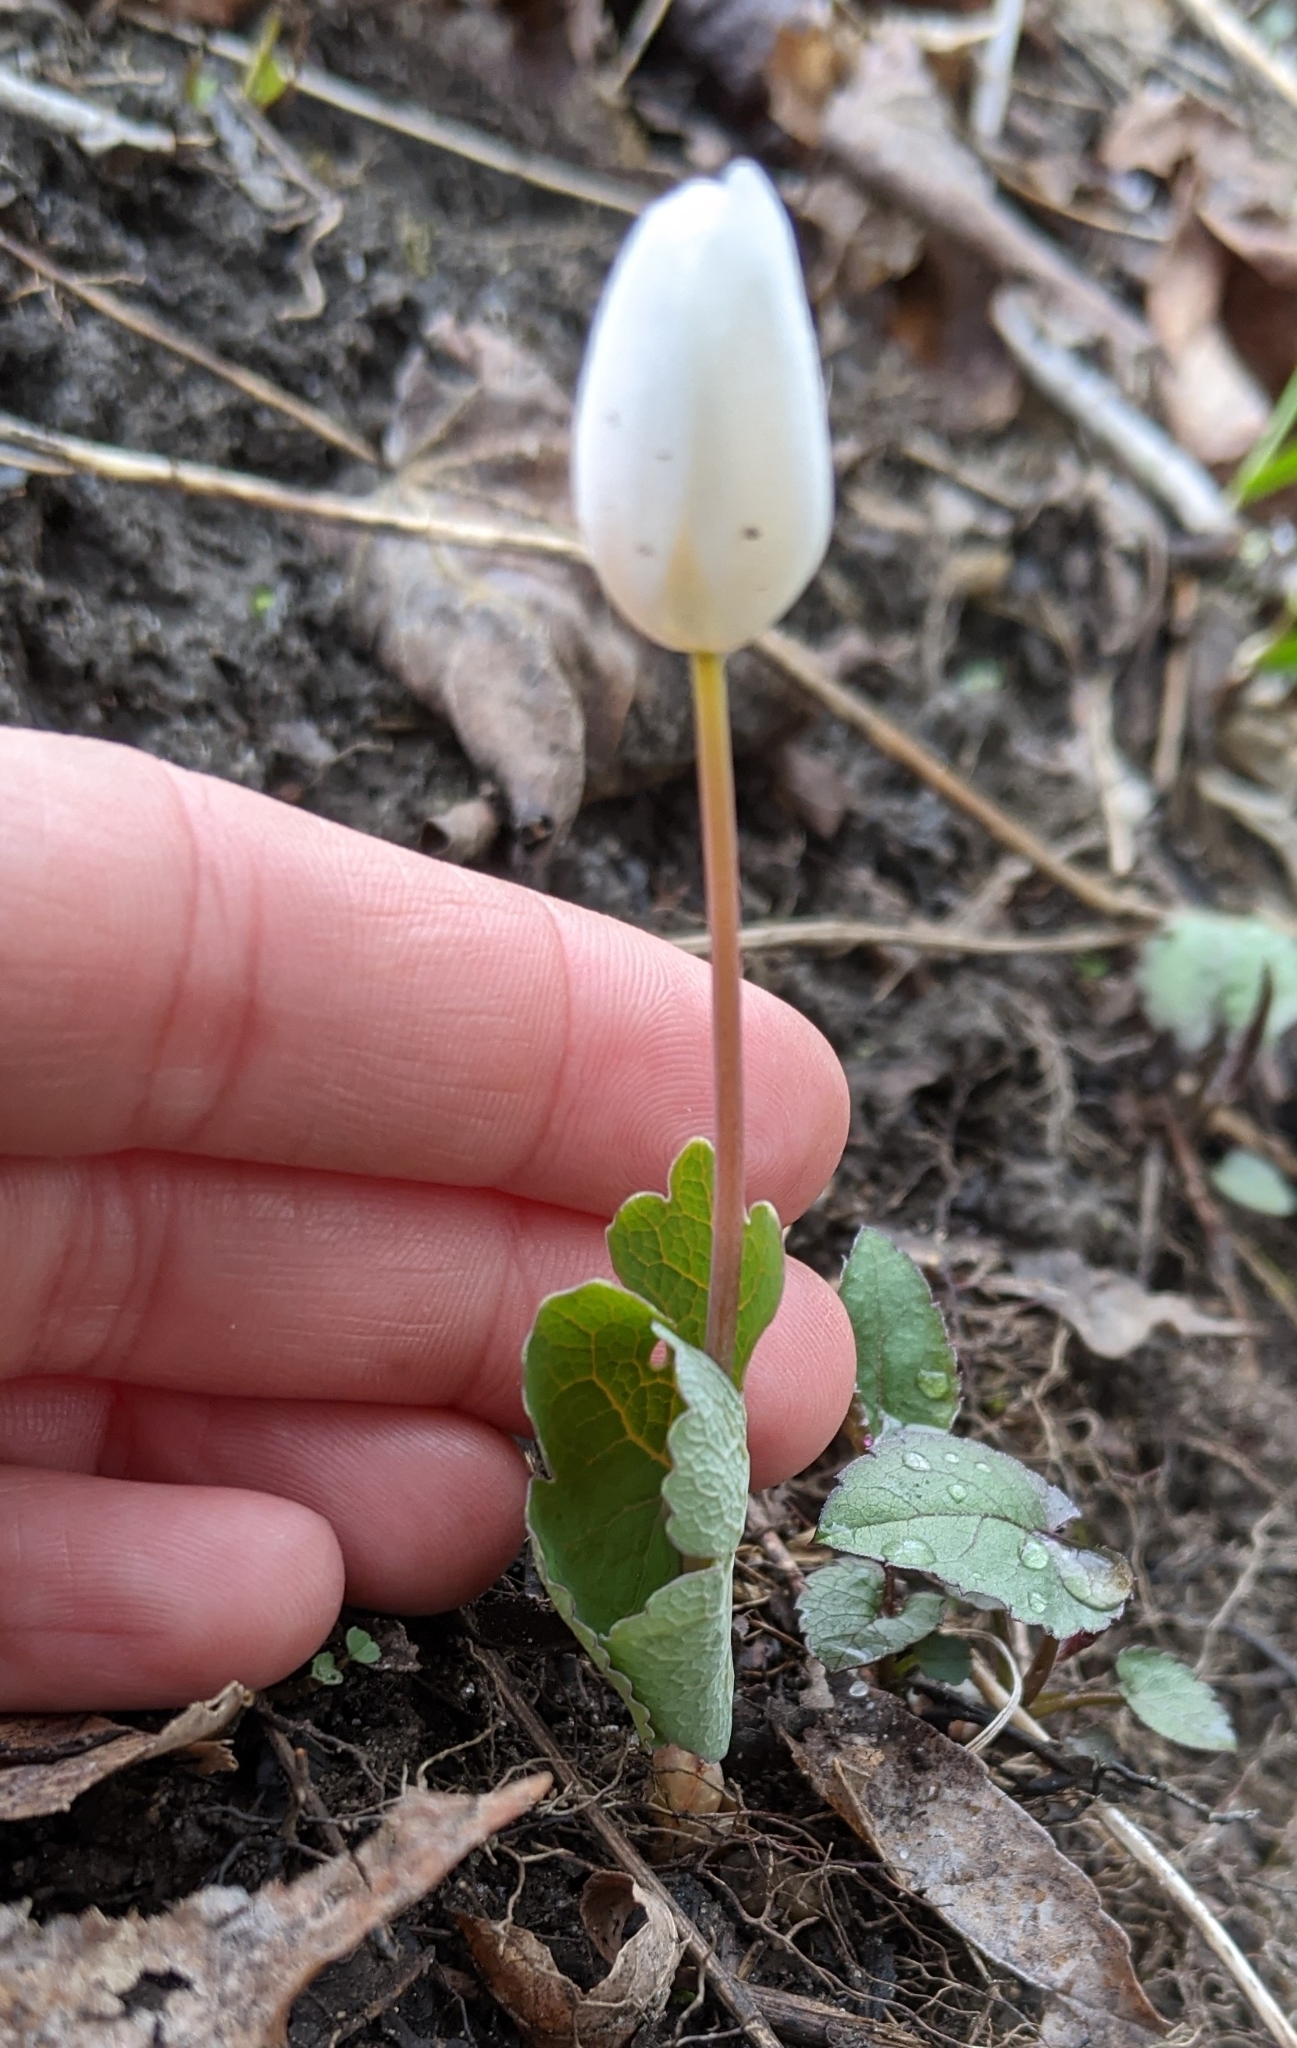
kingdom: Plantae
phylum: Tracheophyta
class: Magnoliopsida
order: Ranunculales
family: Papaveraceae
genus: Sanguinaria
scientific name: Sanguinaria canadensis
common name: Bloodroot
